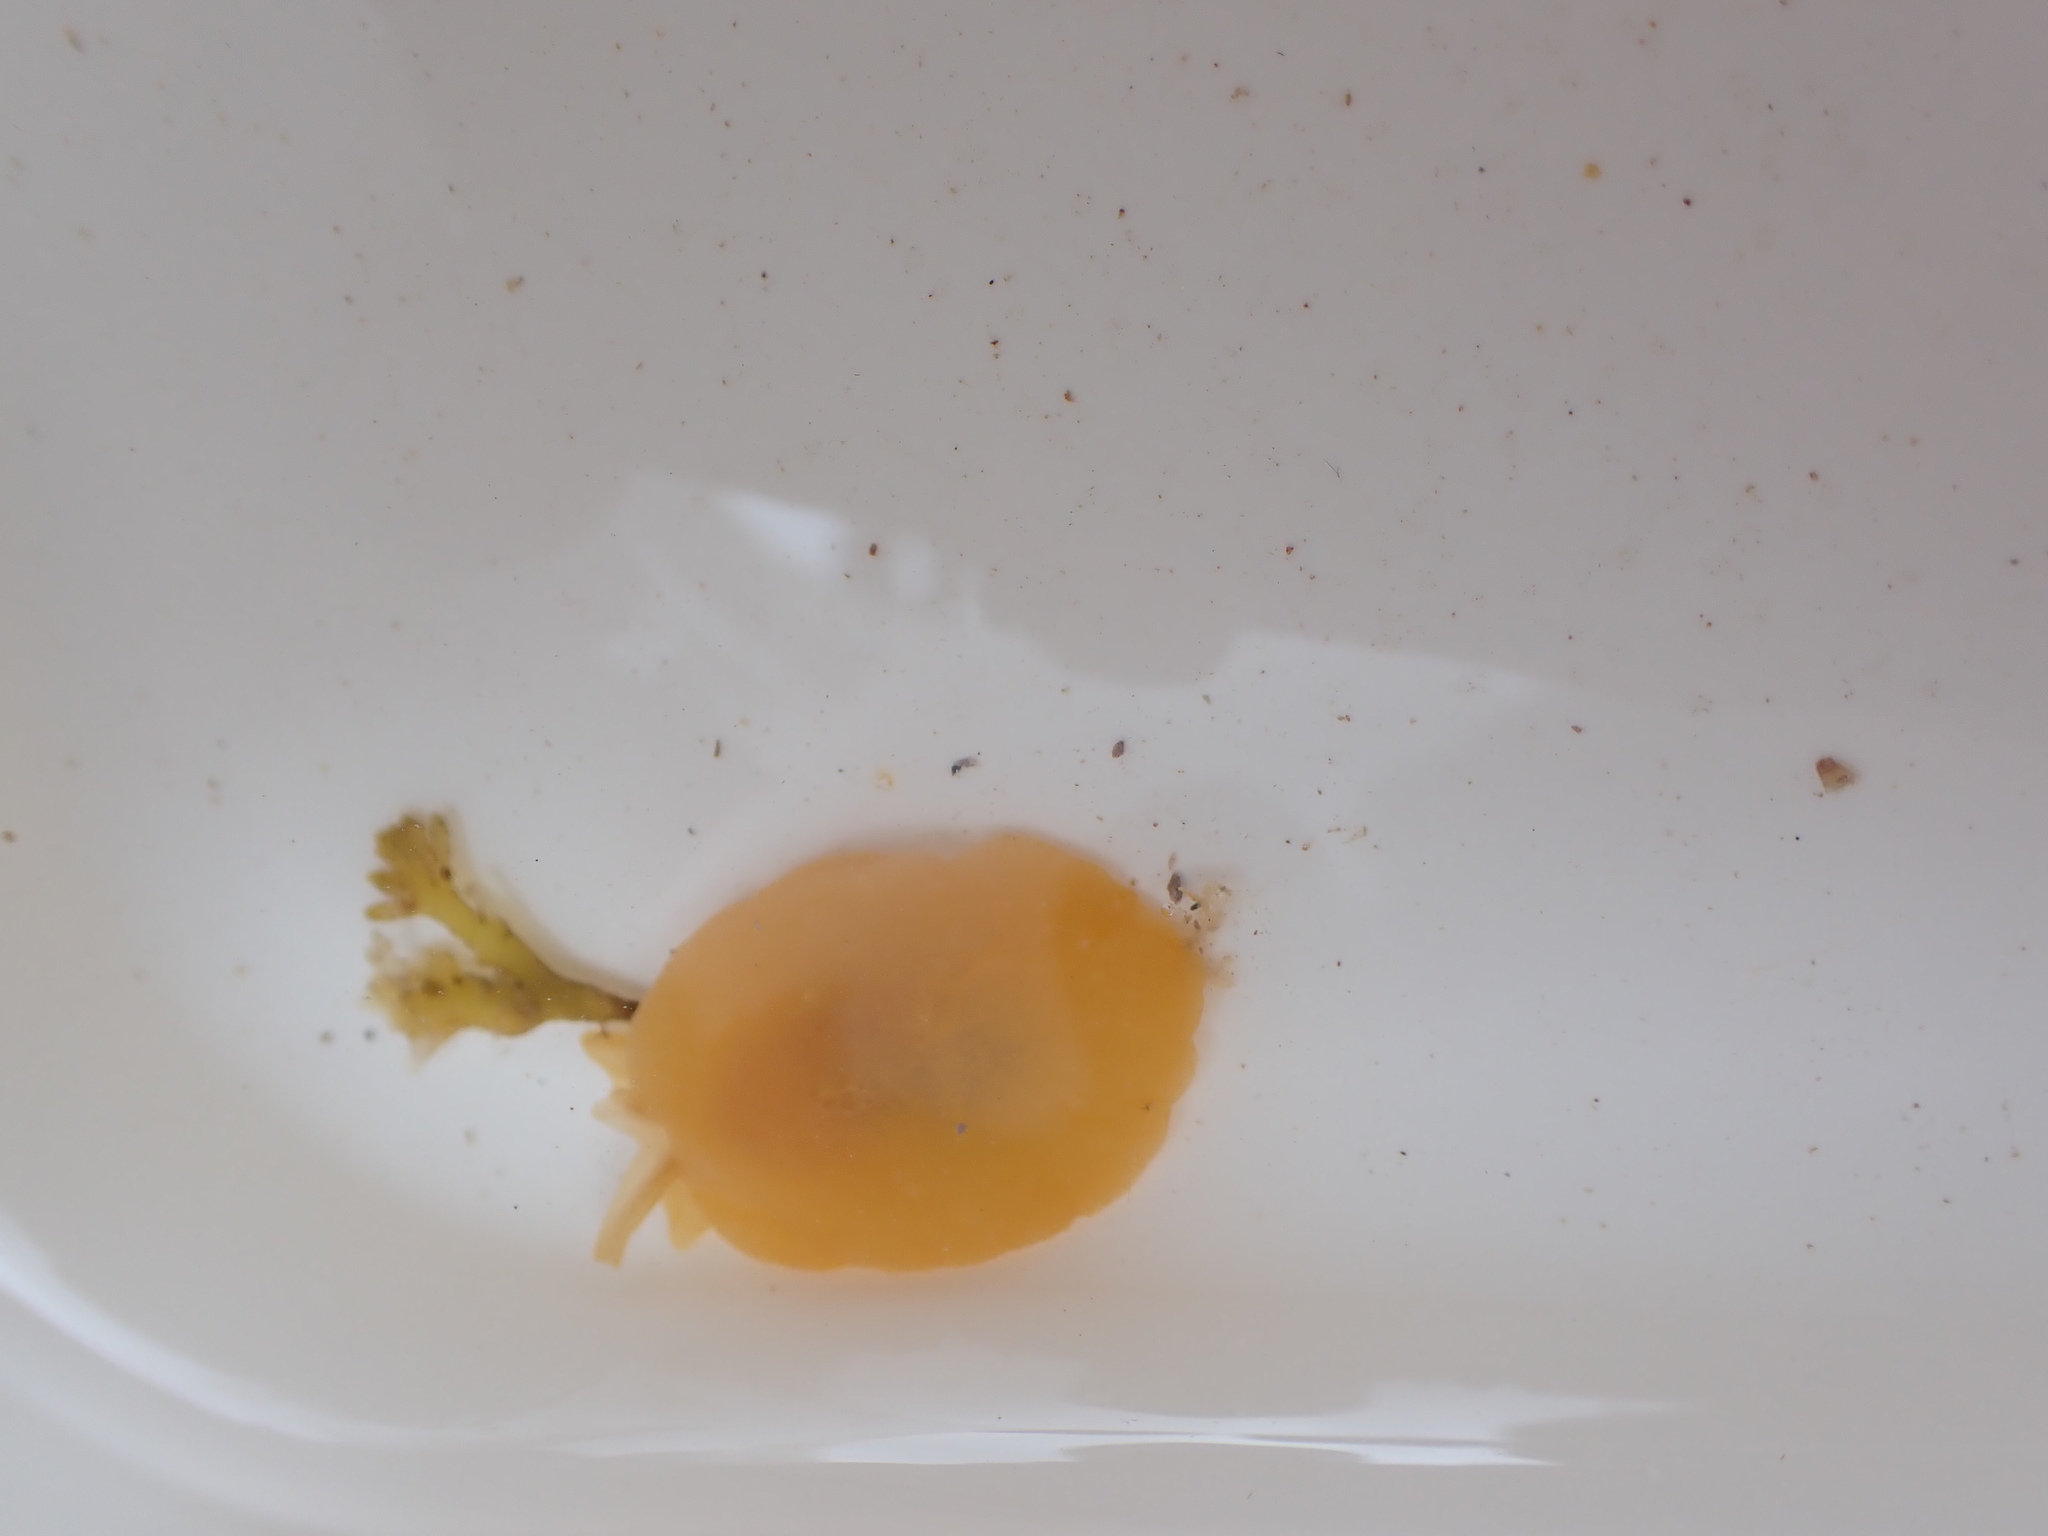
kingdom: Animalia
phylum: Mollusca
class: Gastropoda
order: Pleurobranchida
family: Pleurobranchidae
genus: Berthella
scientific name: Berthella plumula
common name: Yellow-plumed sea slug
